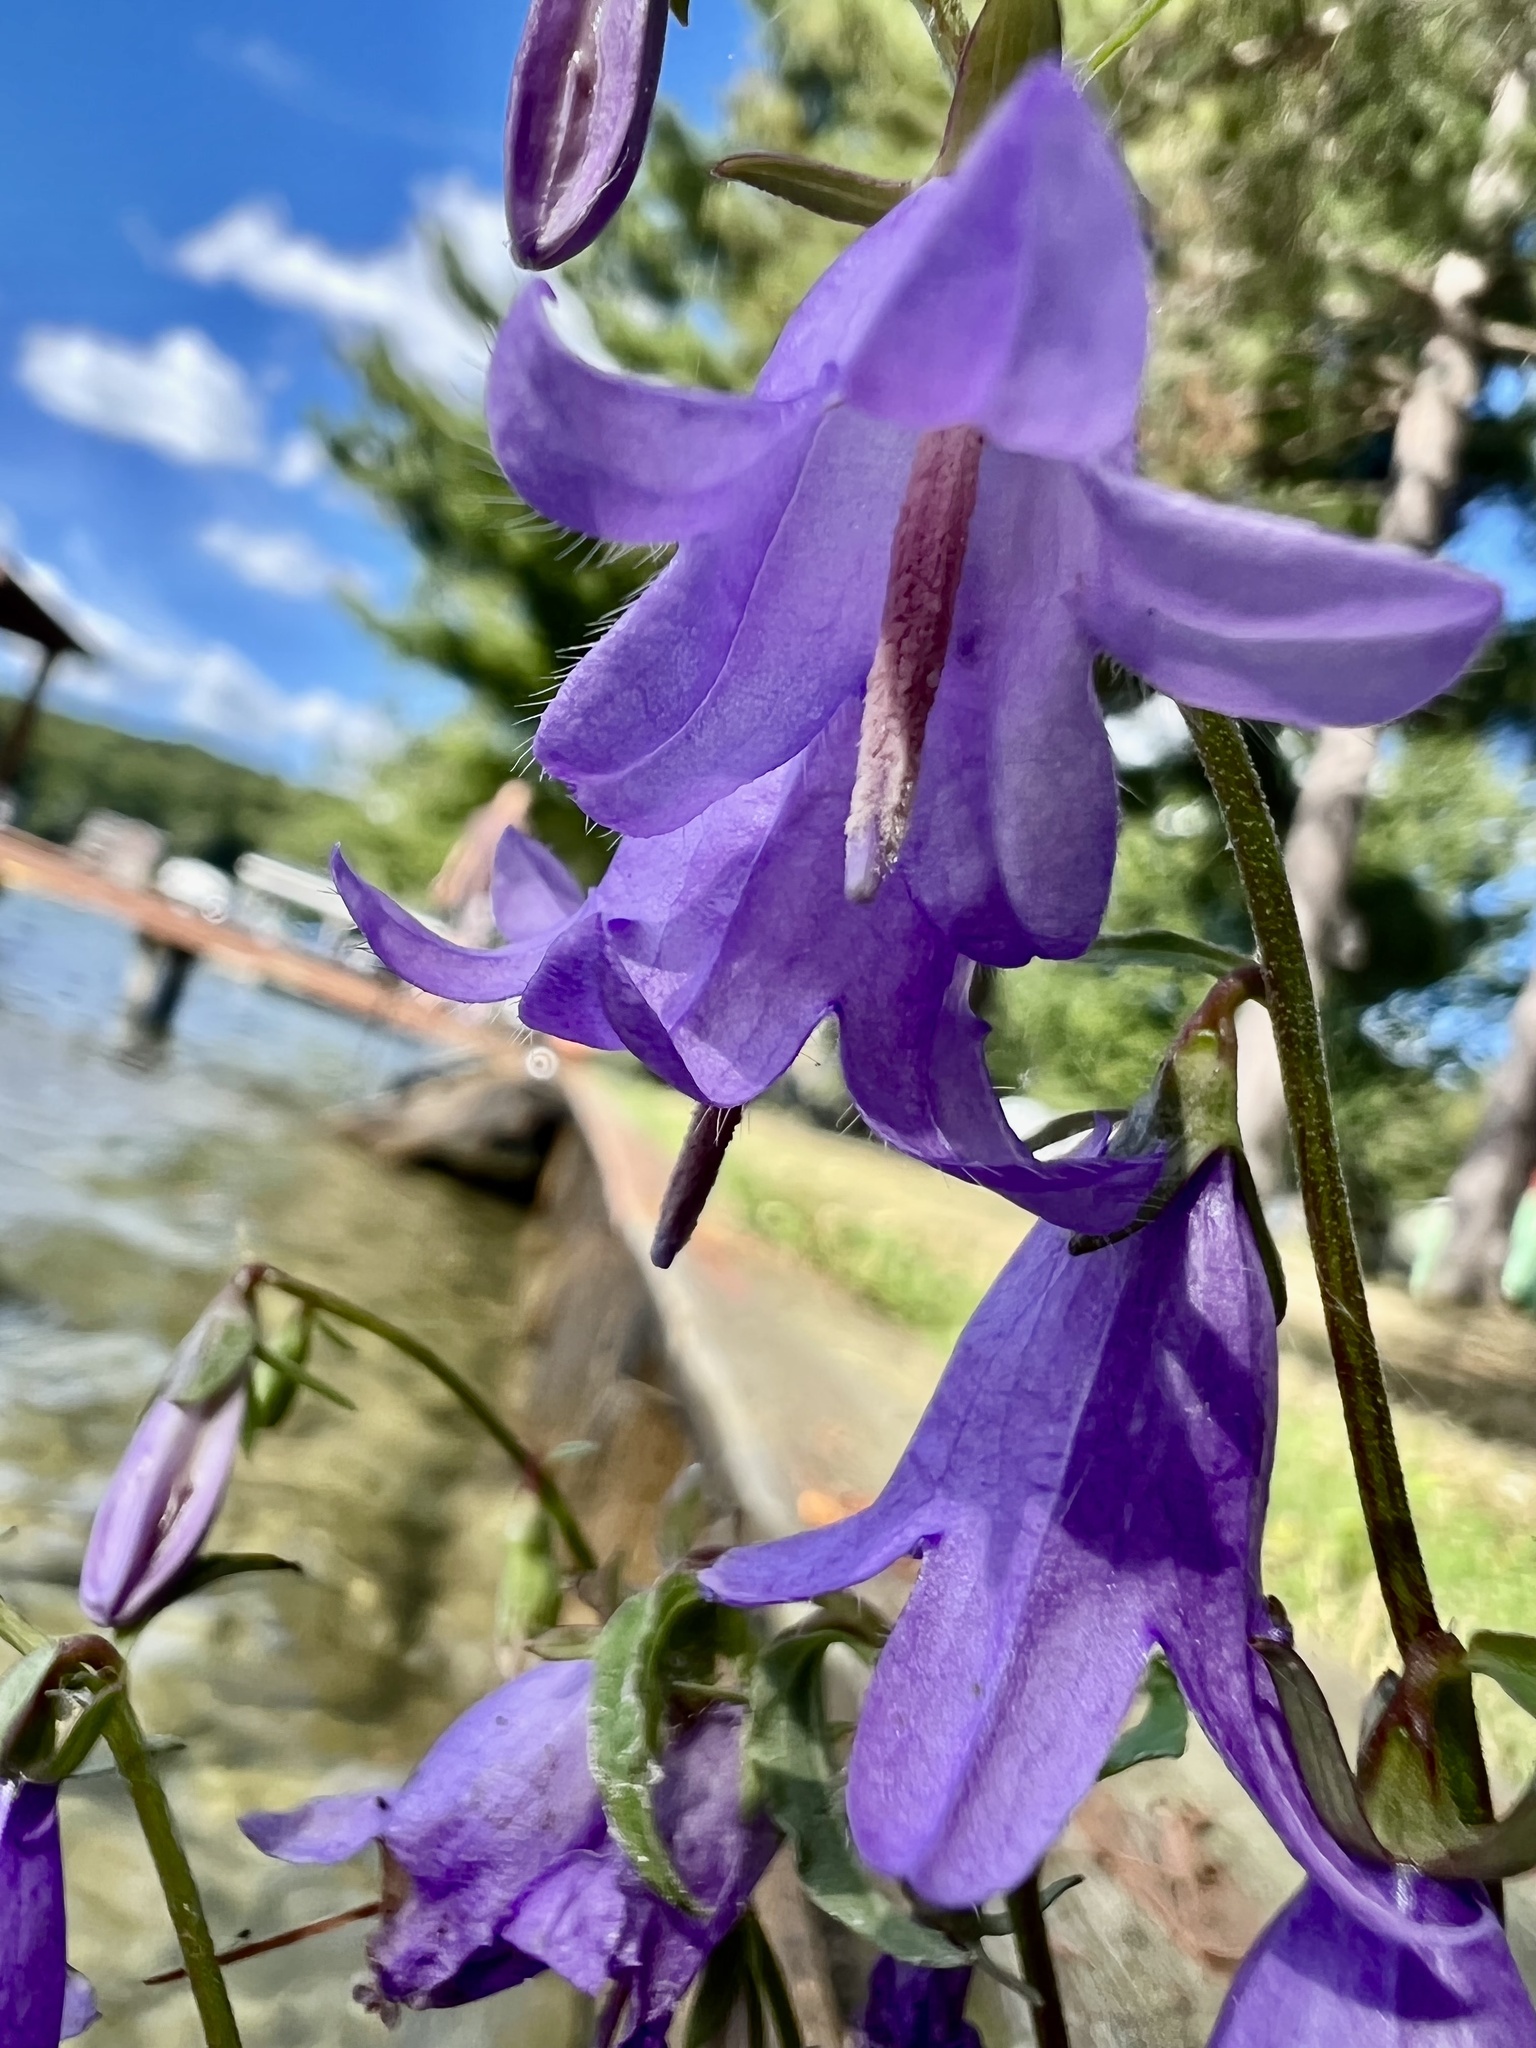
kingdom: Plantae
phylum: Tracheophyta
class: Magnoliopsida
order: Asterales
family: Campanulaceae
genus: Campanula
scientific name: Campanula rapunculoides
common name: Creeping bellflower
